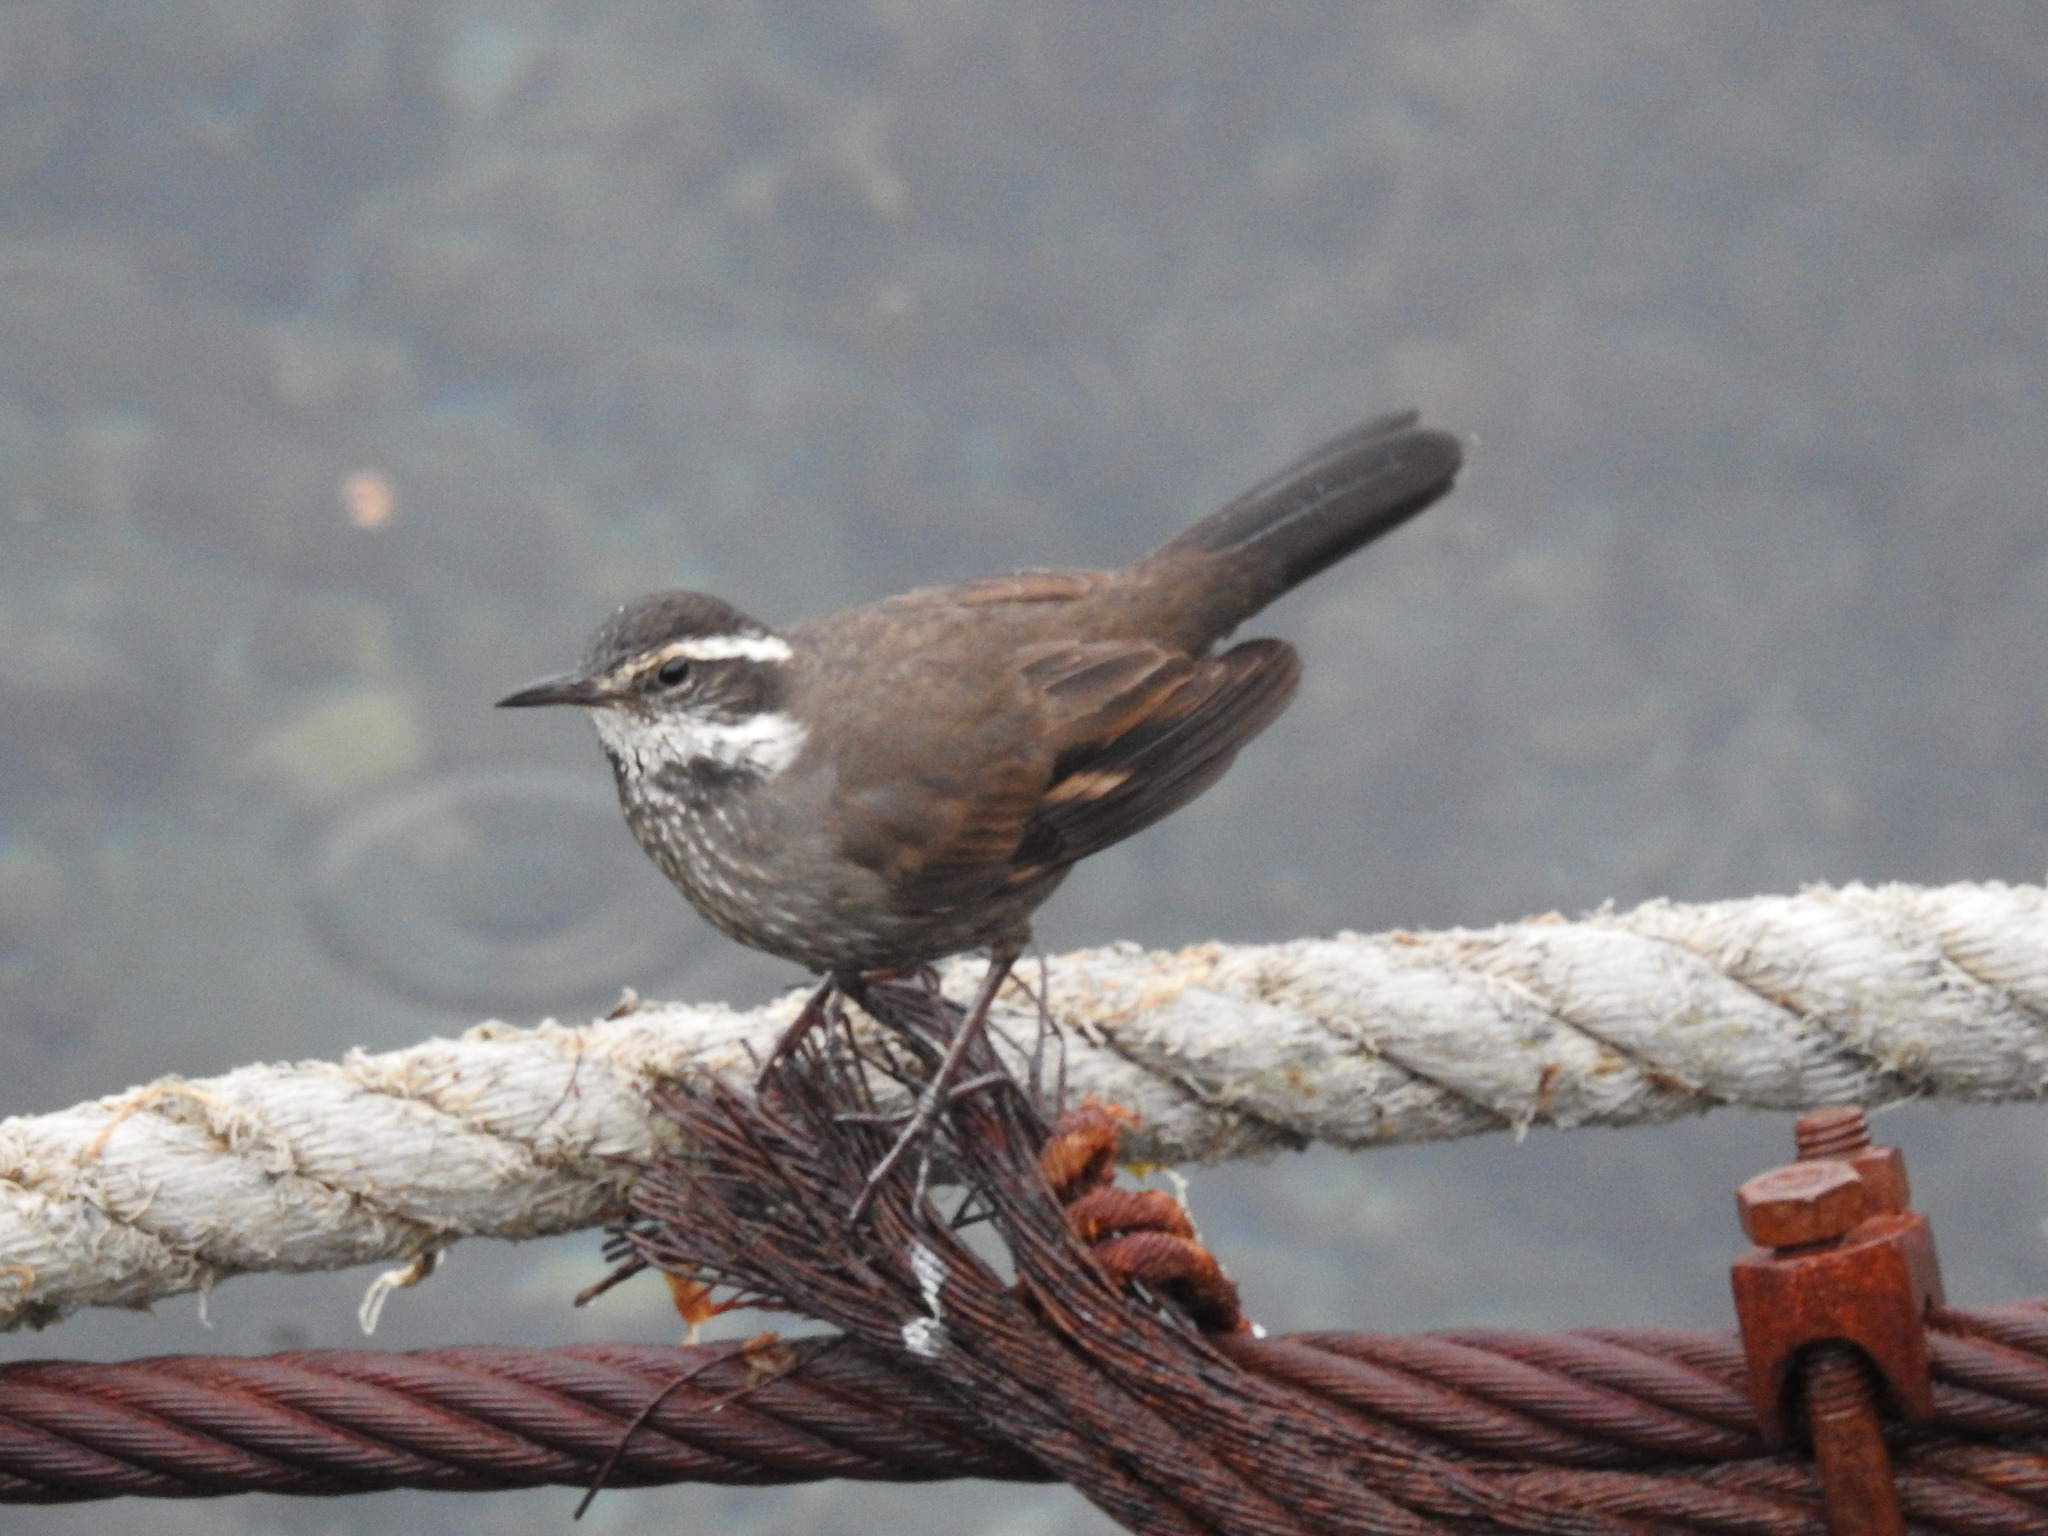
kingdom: Animalia
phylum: Chordata
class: Aves
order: Passeriformes
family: Furnariidae
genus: Cinclodes
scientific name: Cinclodes patagonicus
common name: Dark-bellied cinclodes
